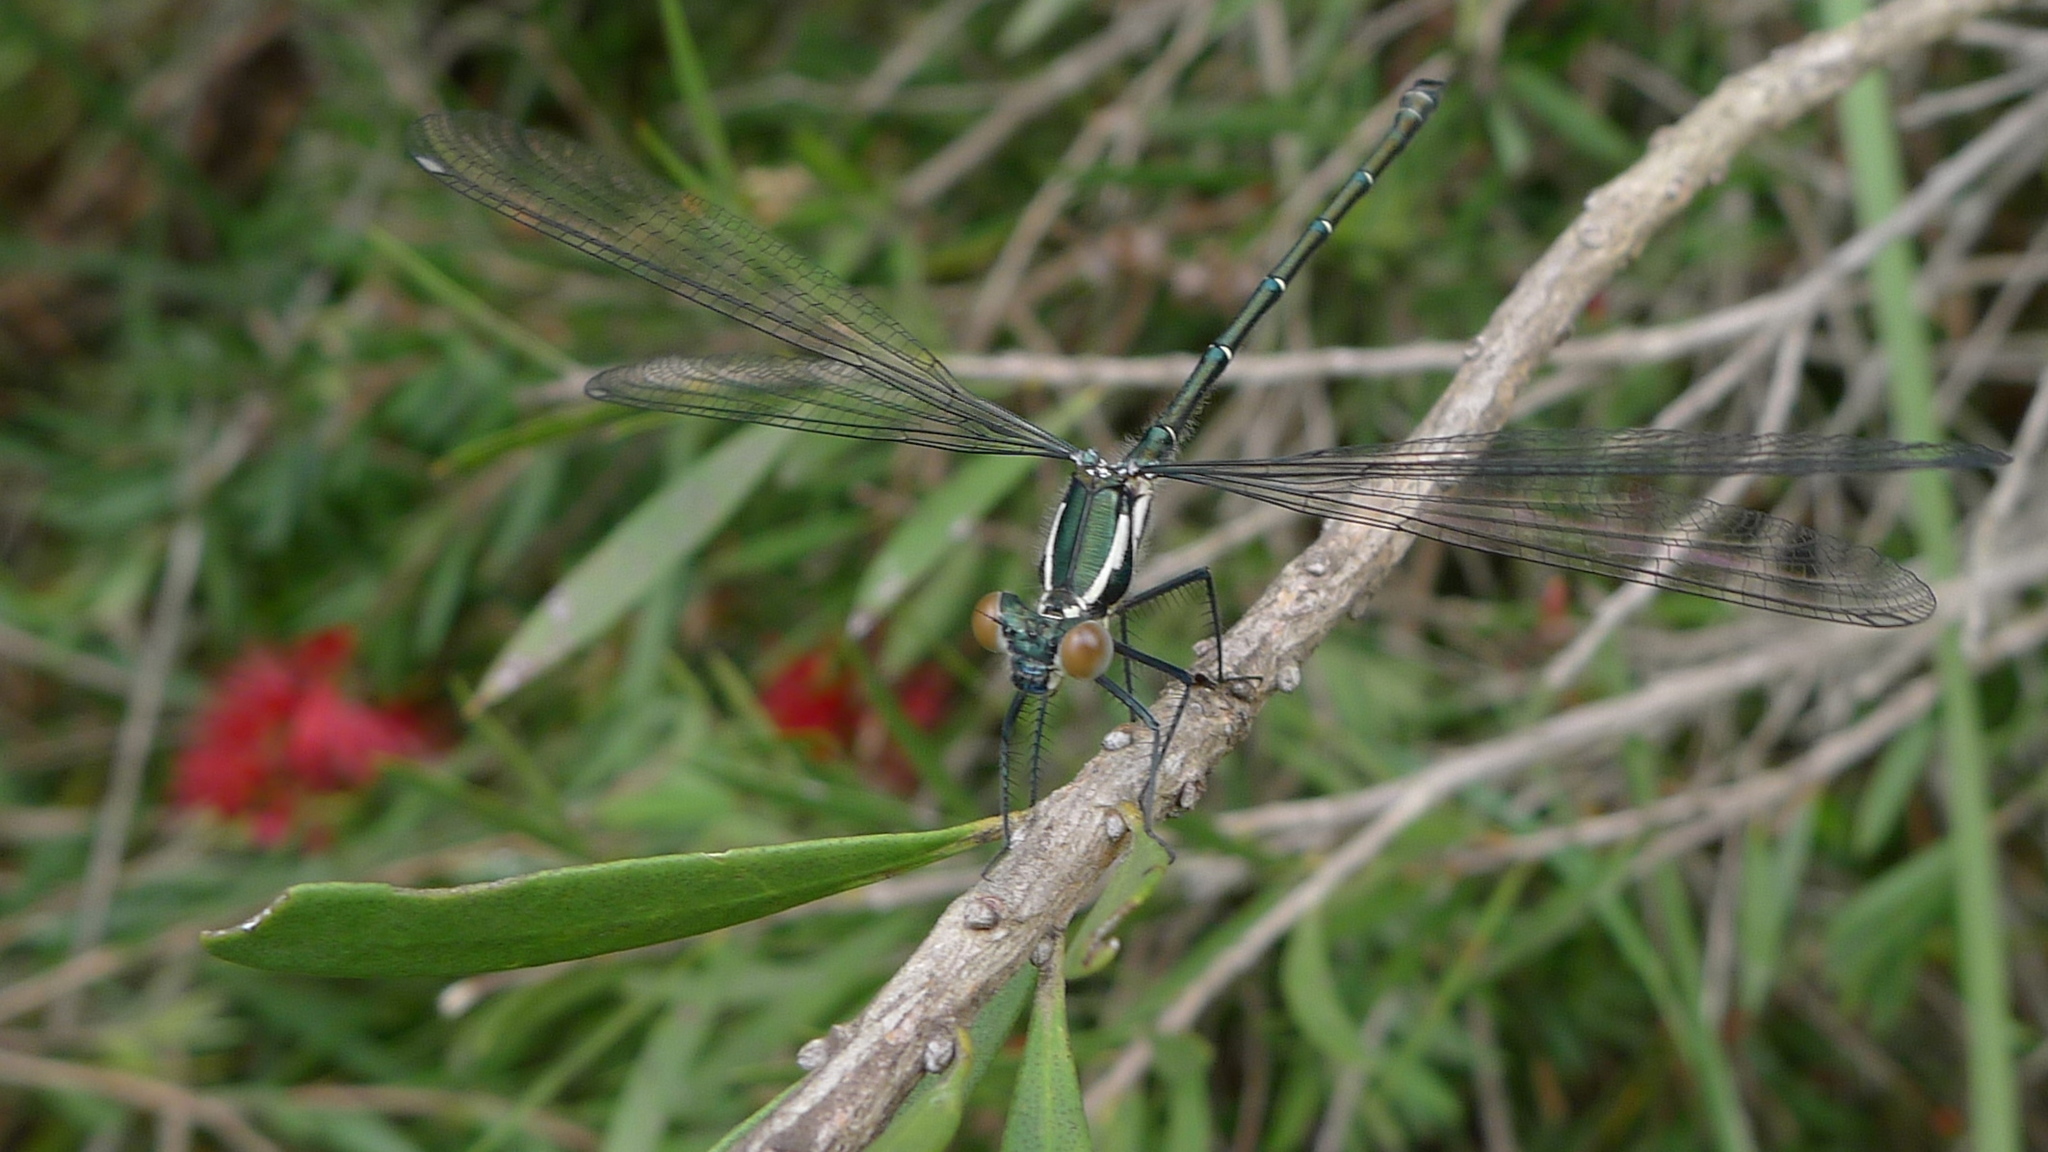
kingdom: Animalia
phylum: Arthropoda
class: Insecta
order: Odonata
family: Argiolestidae
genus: Austroargiolestes
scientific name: Austroargiolestes icteromelas
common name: Common flatwing
